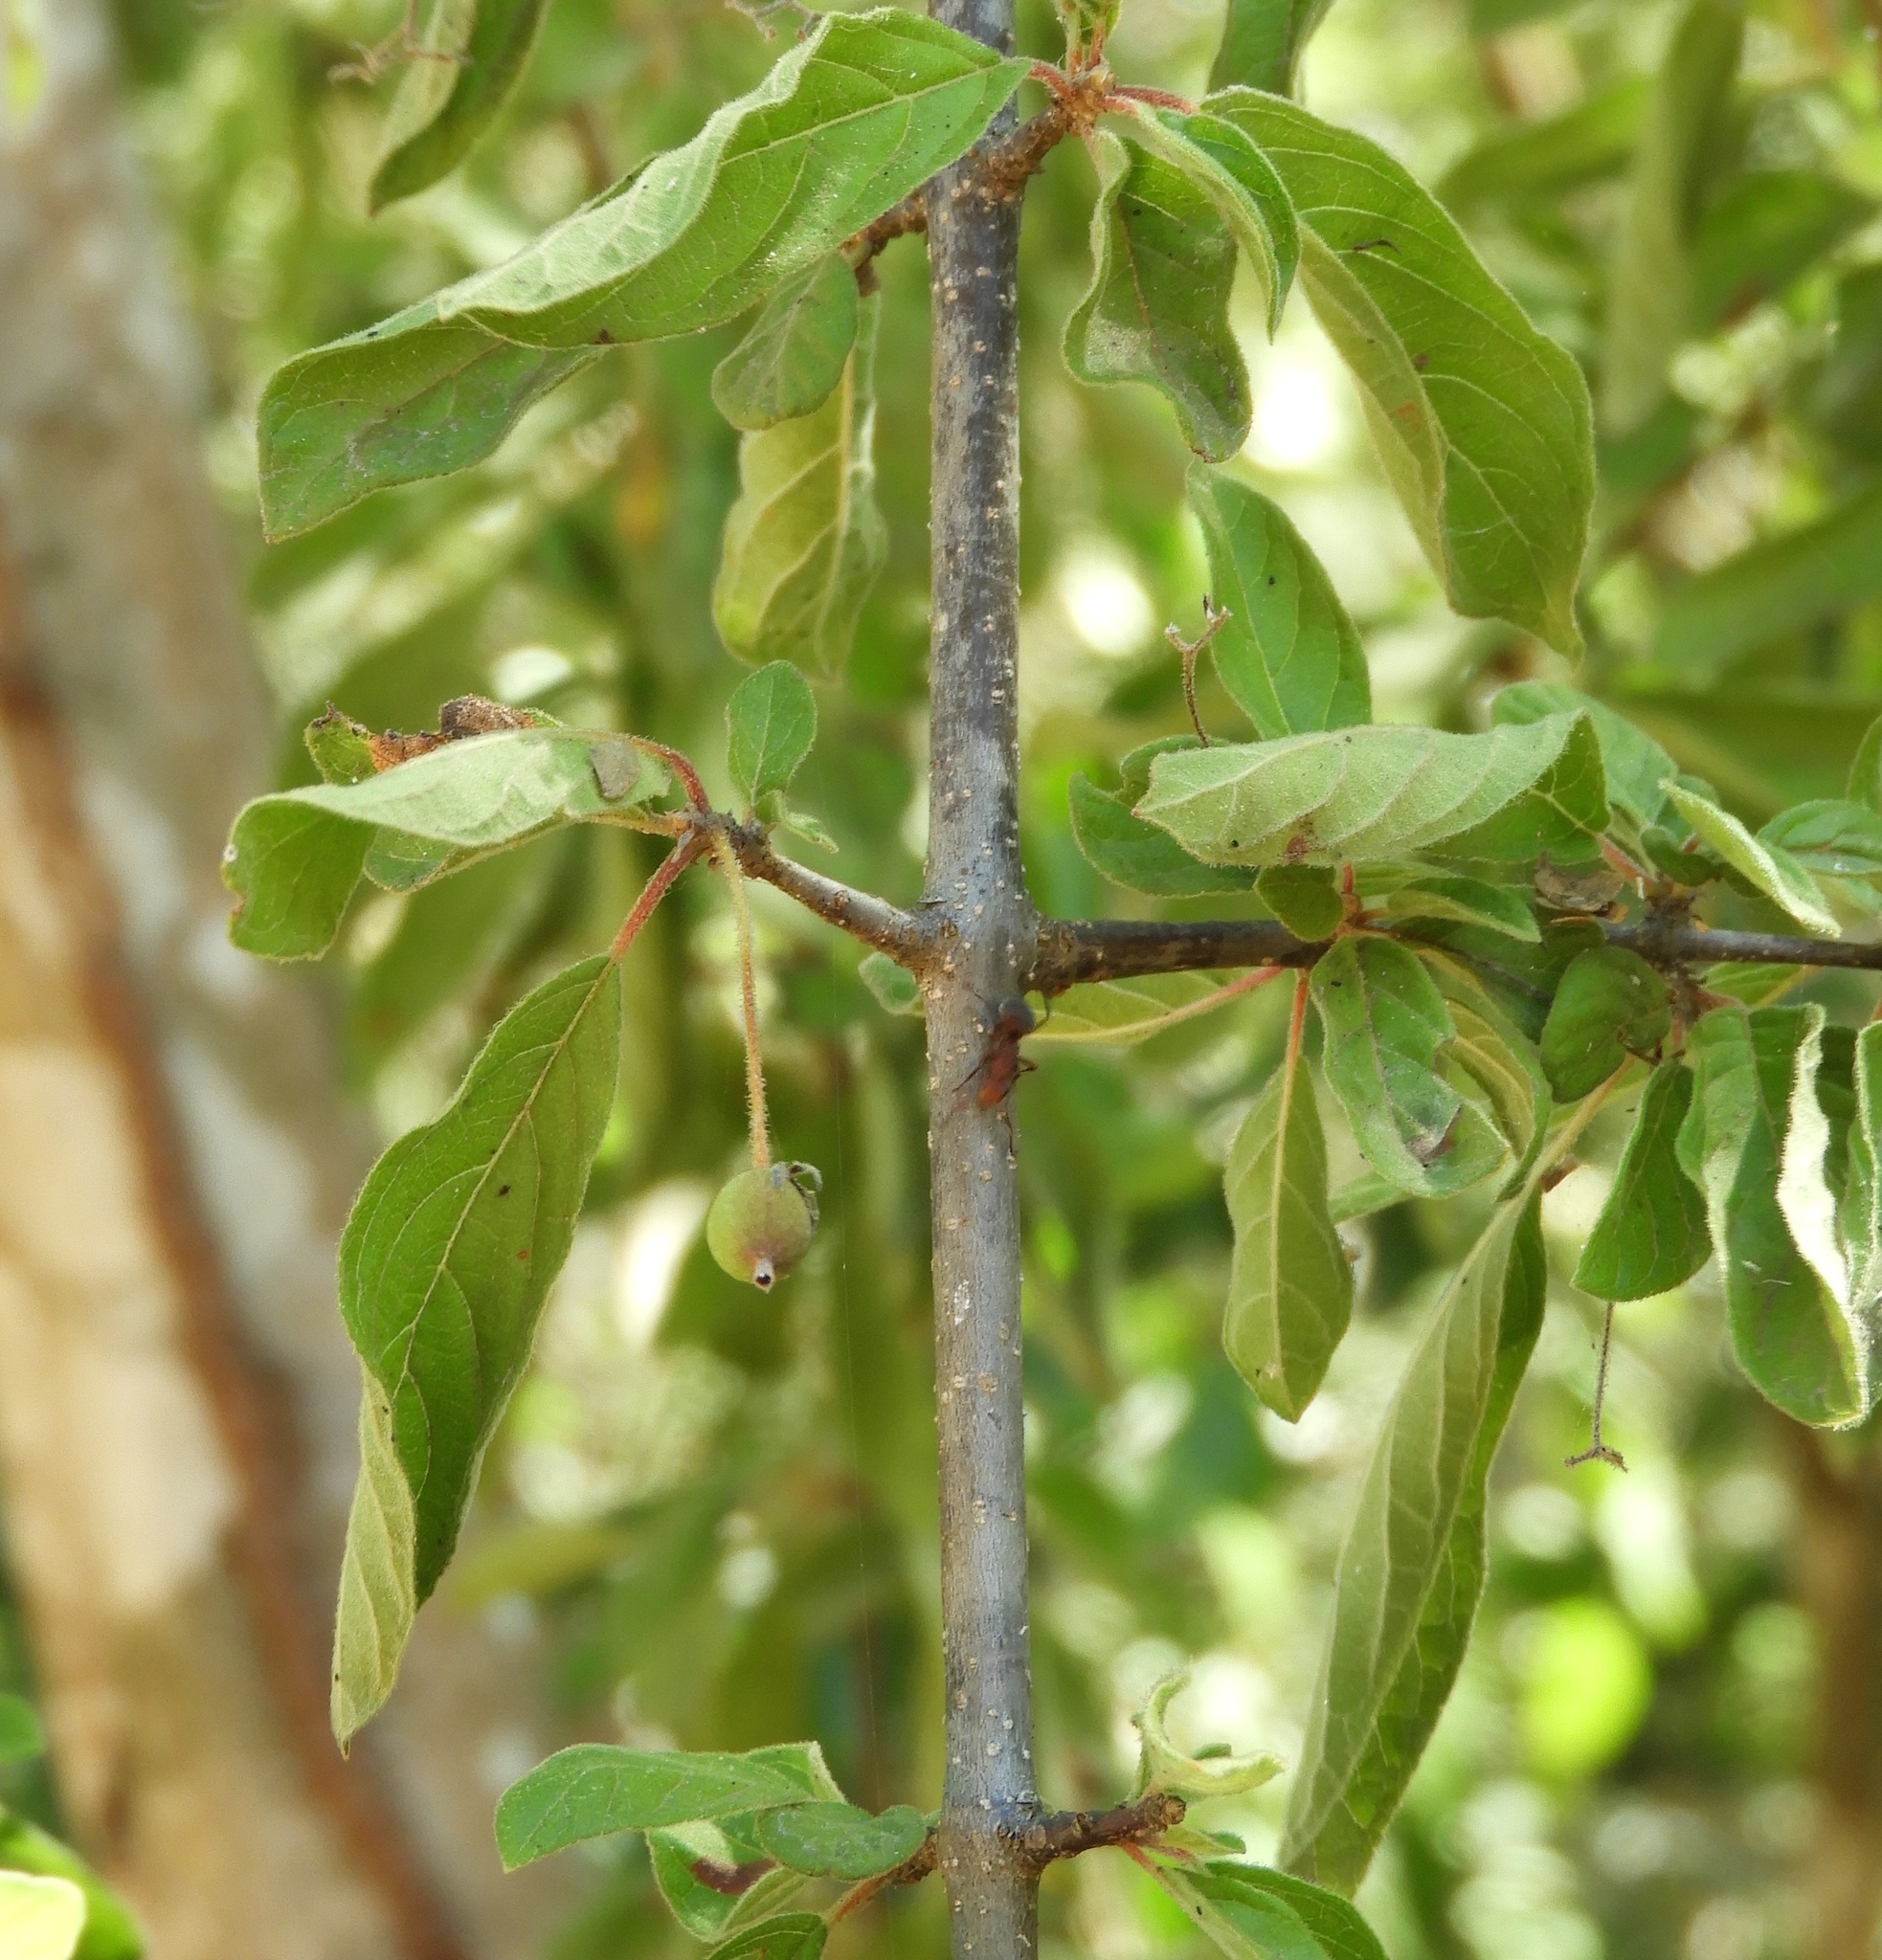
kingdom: Plantae
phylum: Tracheophyta
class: Magnoliopsida
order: Gentianales
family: Rubiaceae
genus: Guettarda
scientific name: Guettarda elliptica
